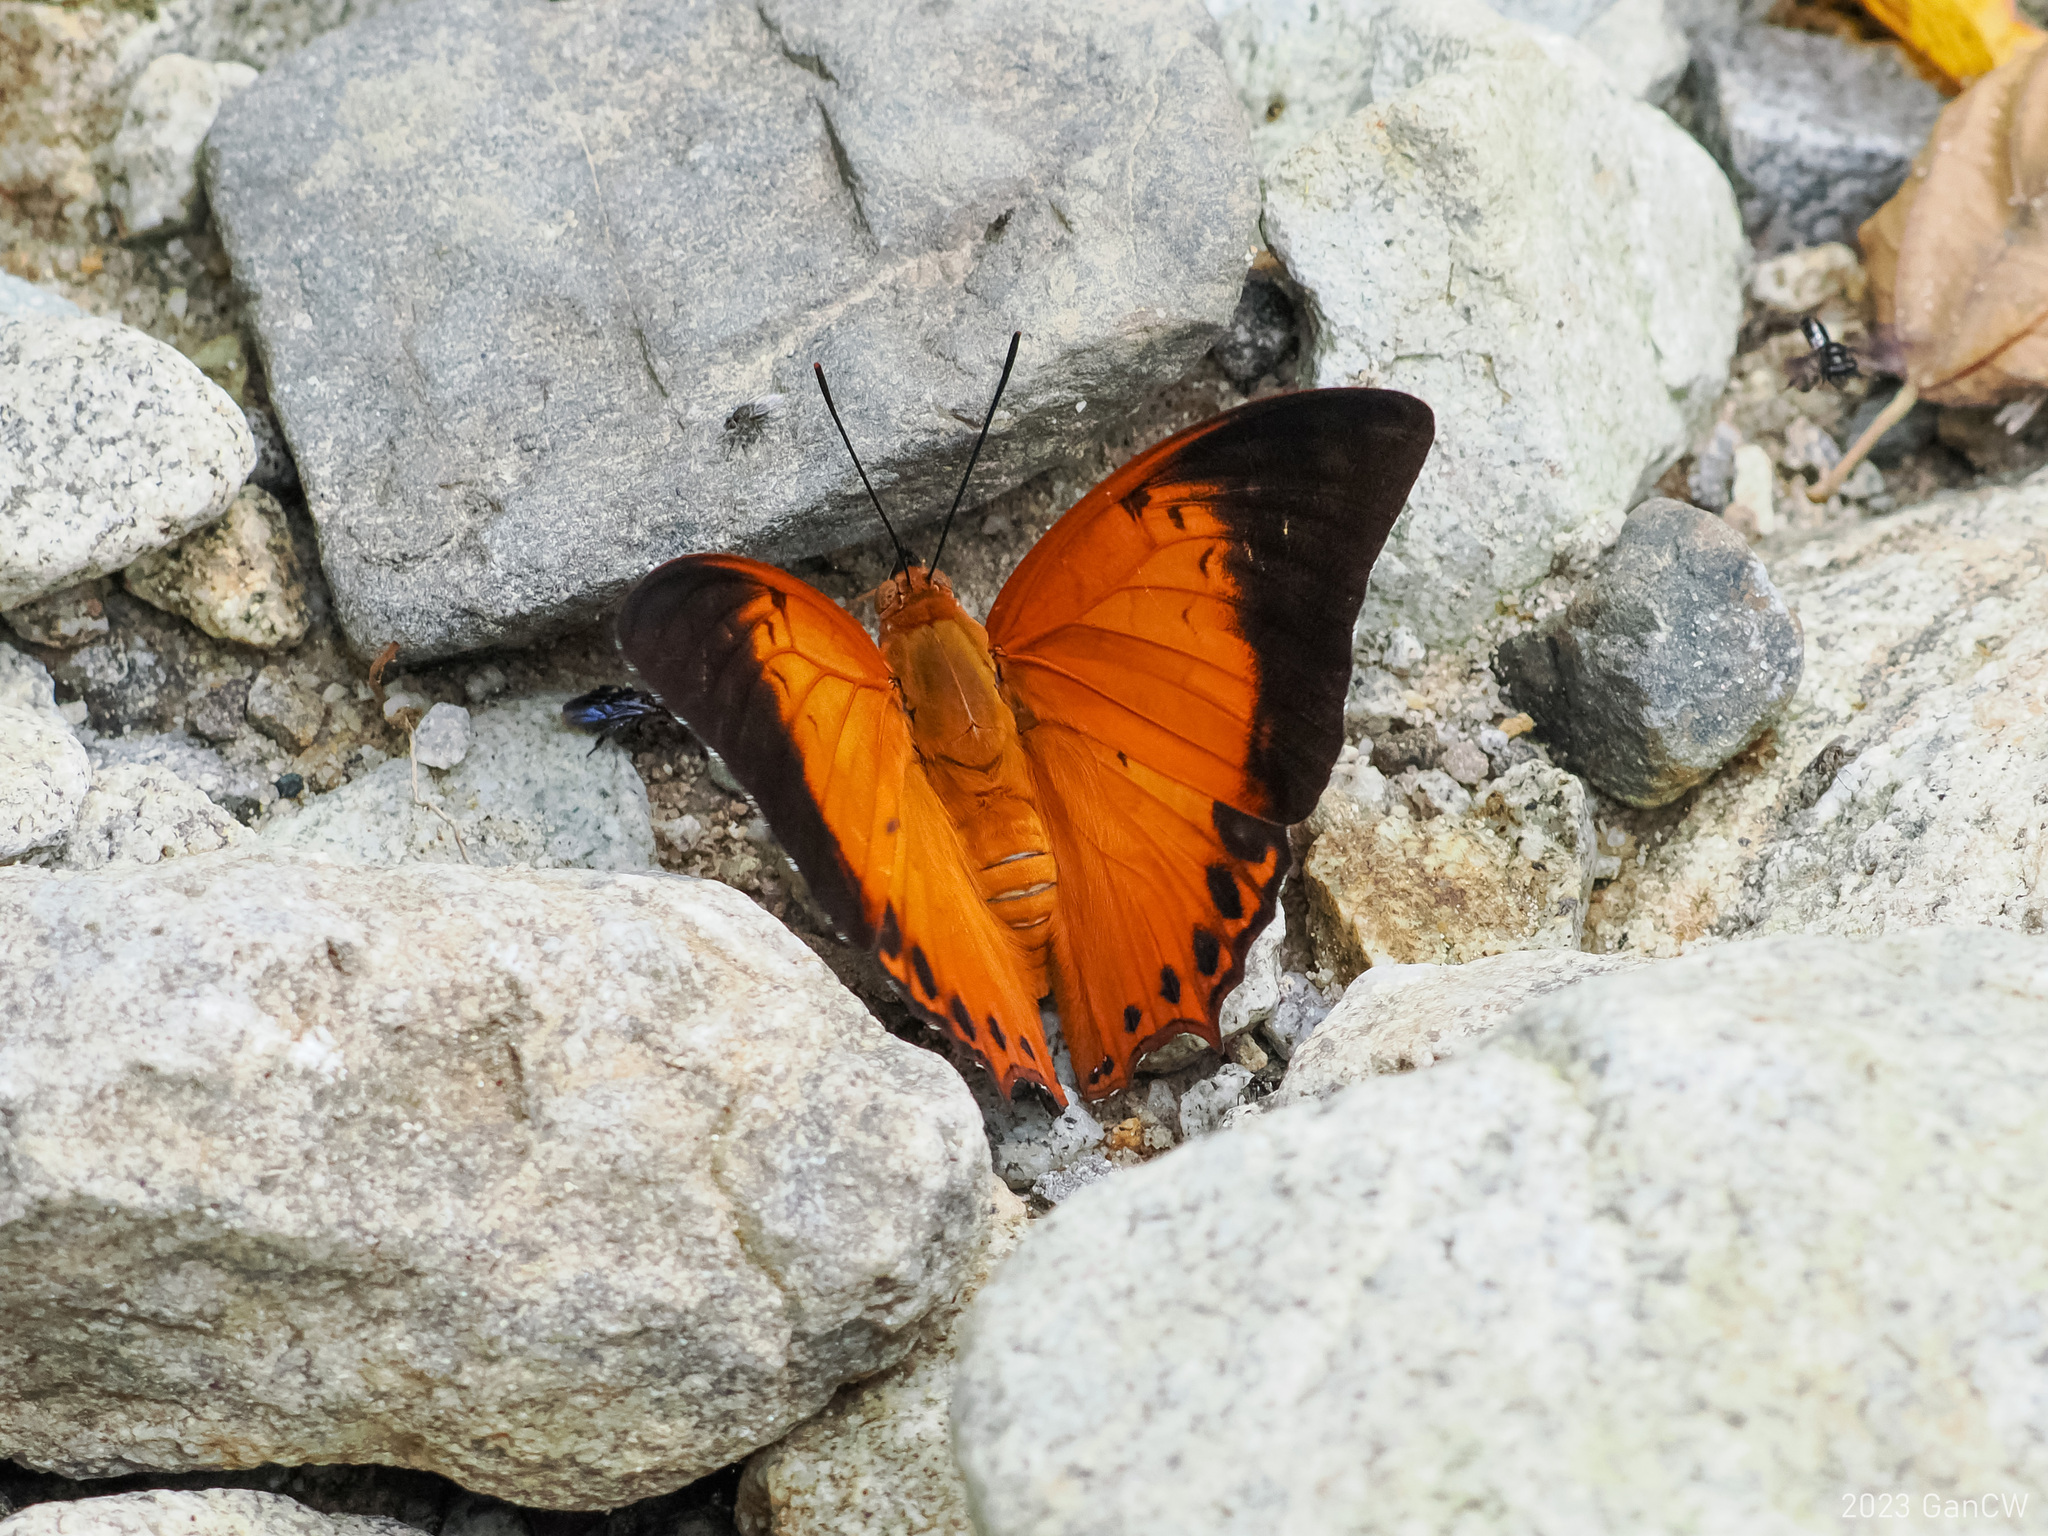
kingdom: Animalia
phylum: Arthropoda
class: Insecta
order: Lepidoptera
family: Nymphalidae
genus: Charaxes
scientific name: Charaxes affinis
